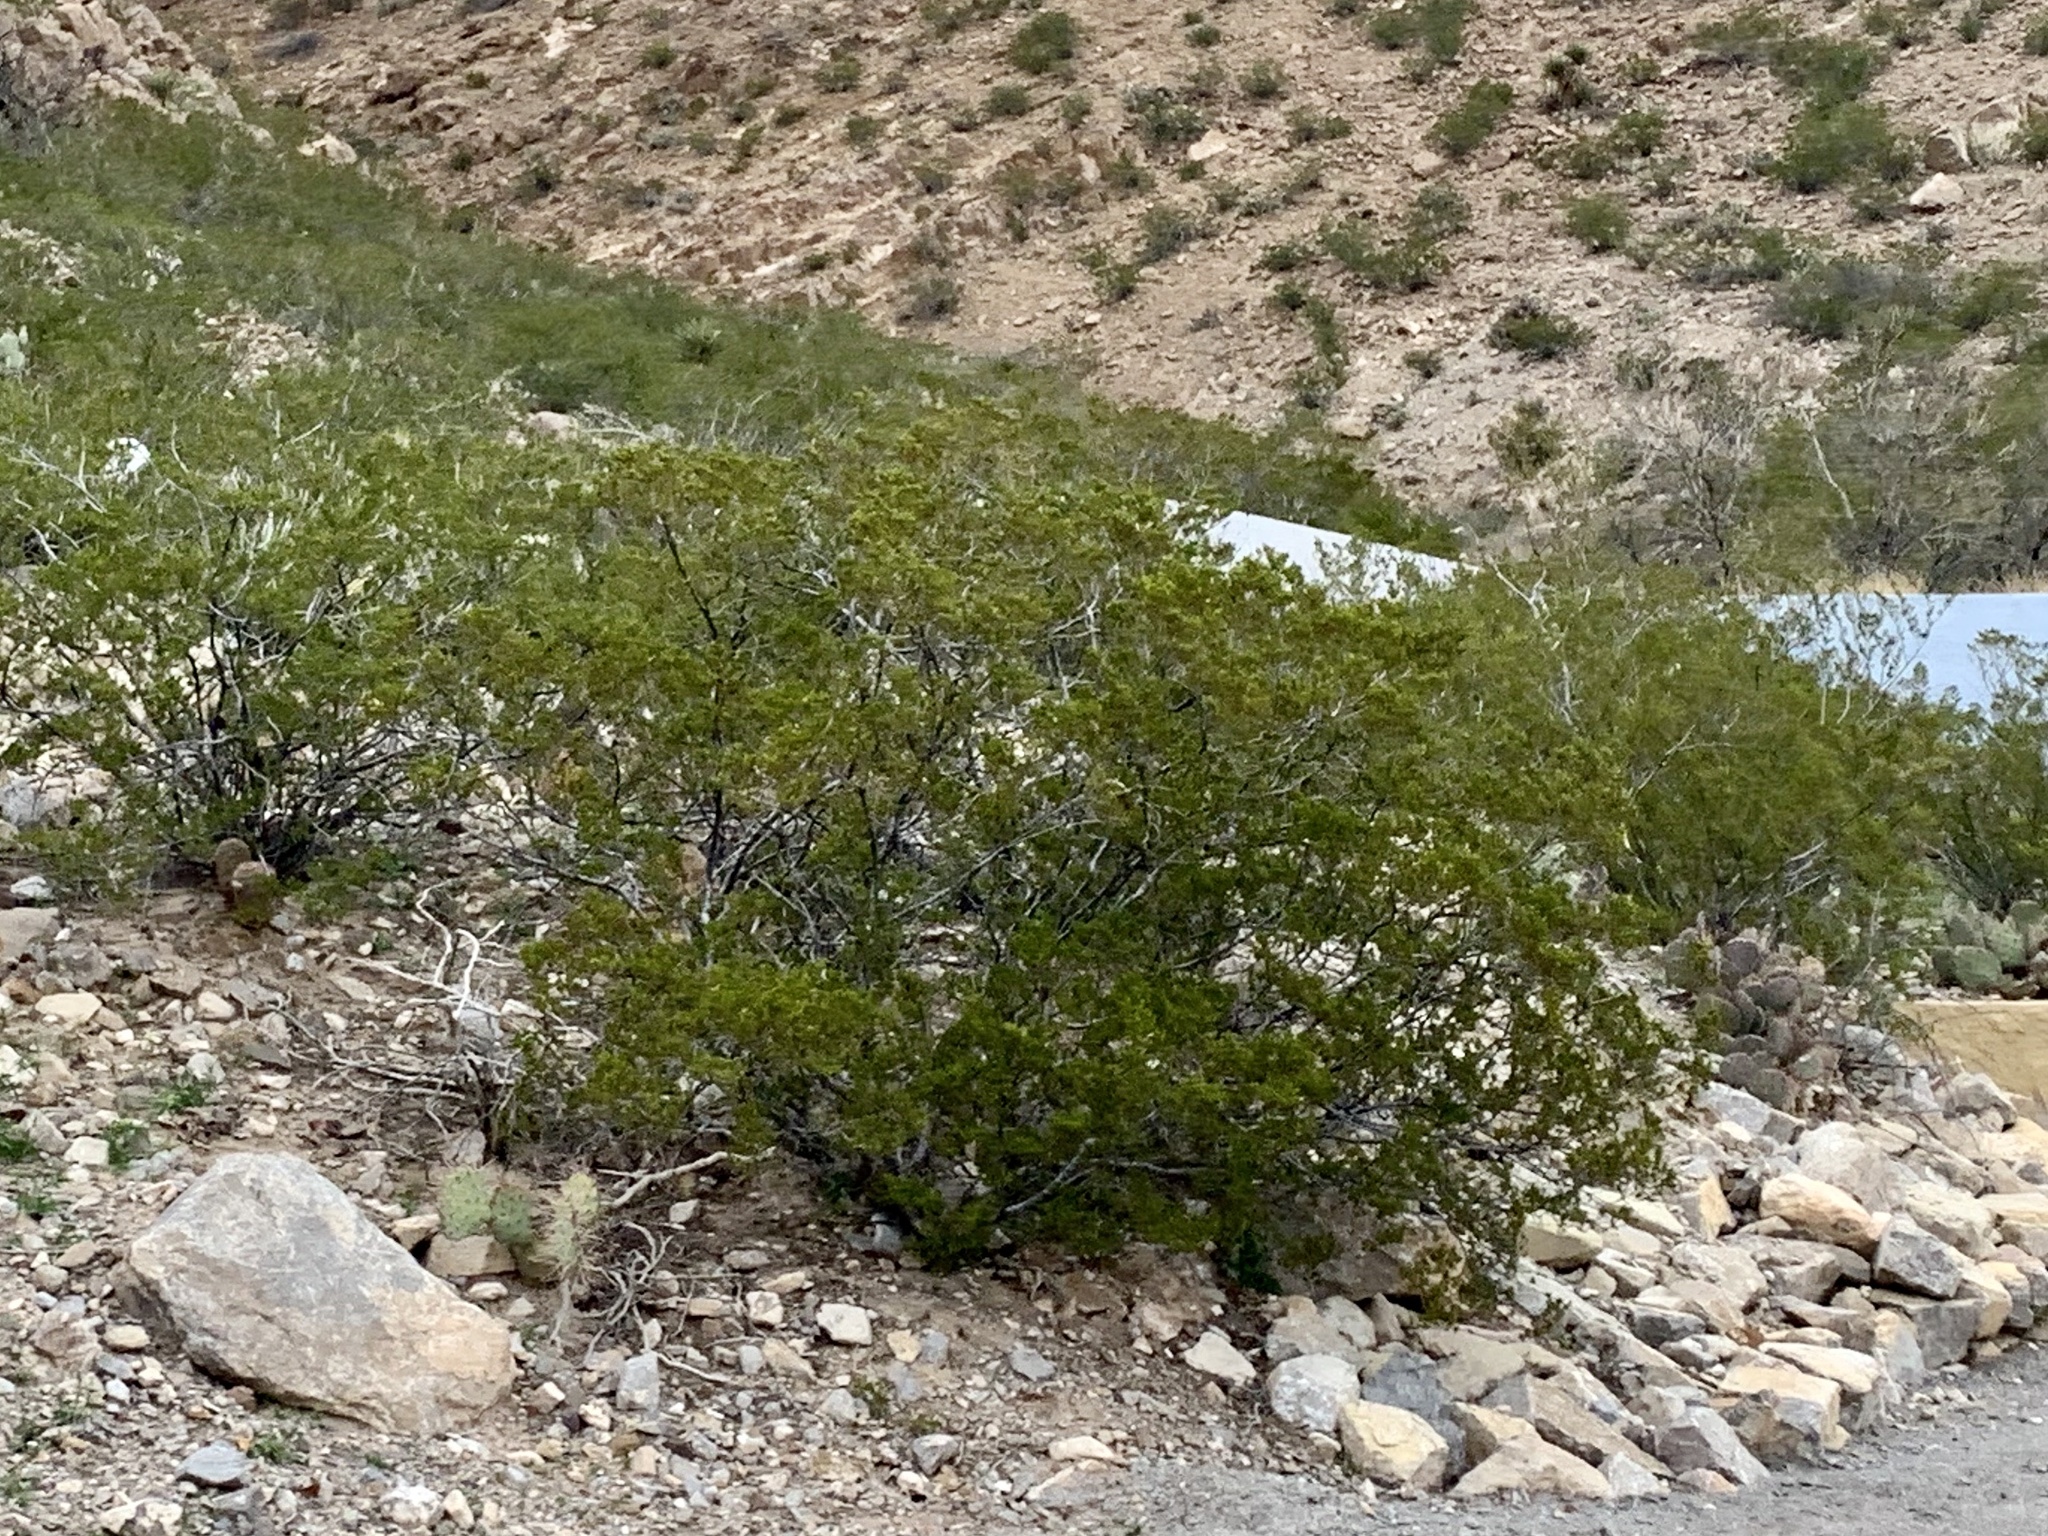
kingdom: Plantae
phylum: Tracheophyta
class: Magnoliopsida
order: Zygophyllales
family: Zygophyllaceae
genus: Larrea
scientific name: Larrea tridentata
